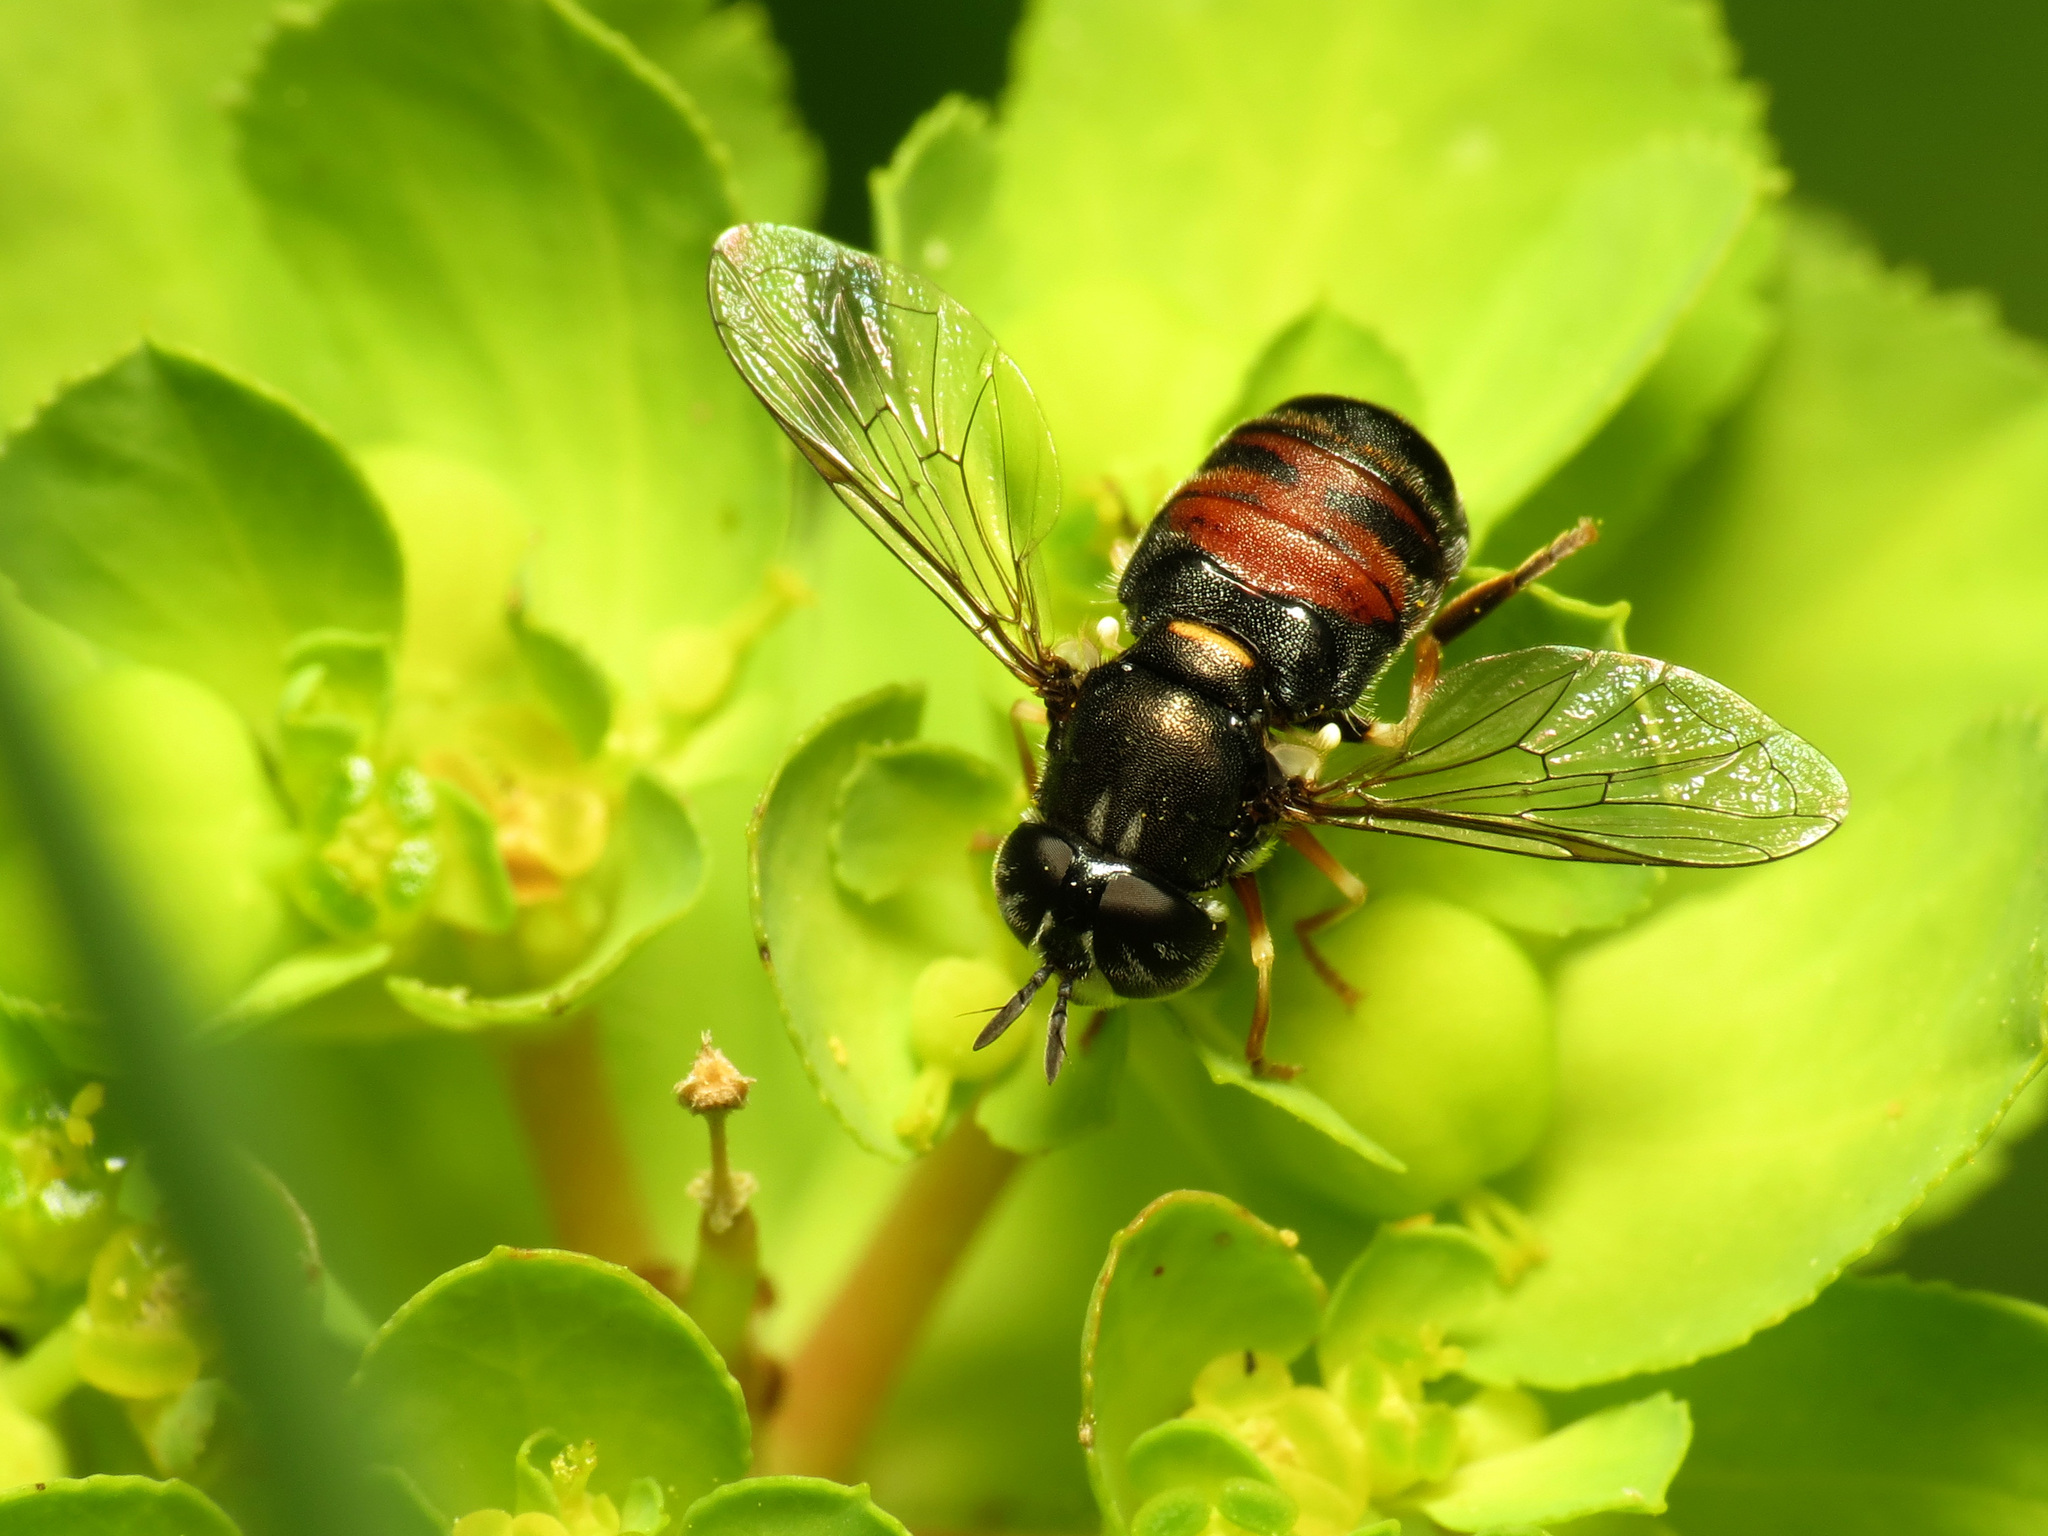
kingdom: Animalia
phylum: Arthropoda
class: Insecta
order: Diptera
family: Syrphidae
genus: Paragus
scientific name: Paragus bicolor
